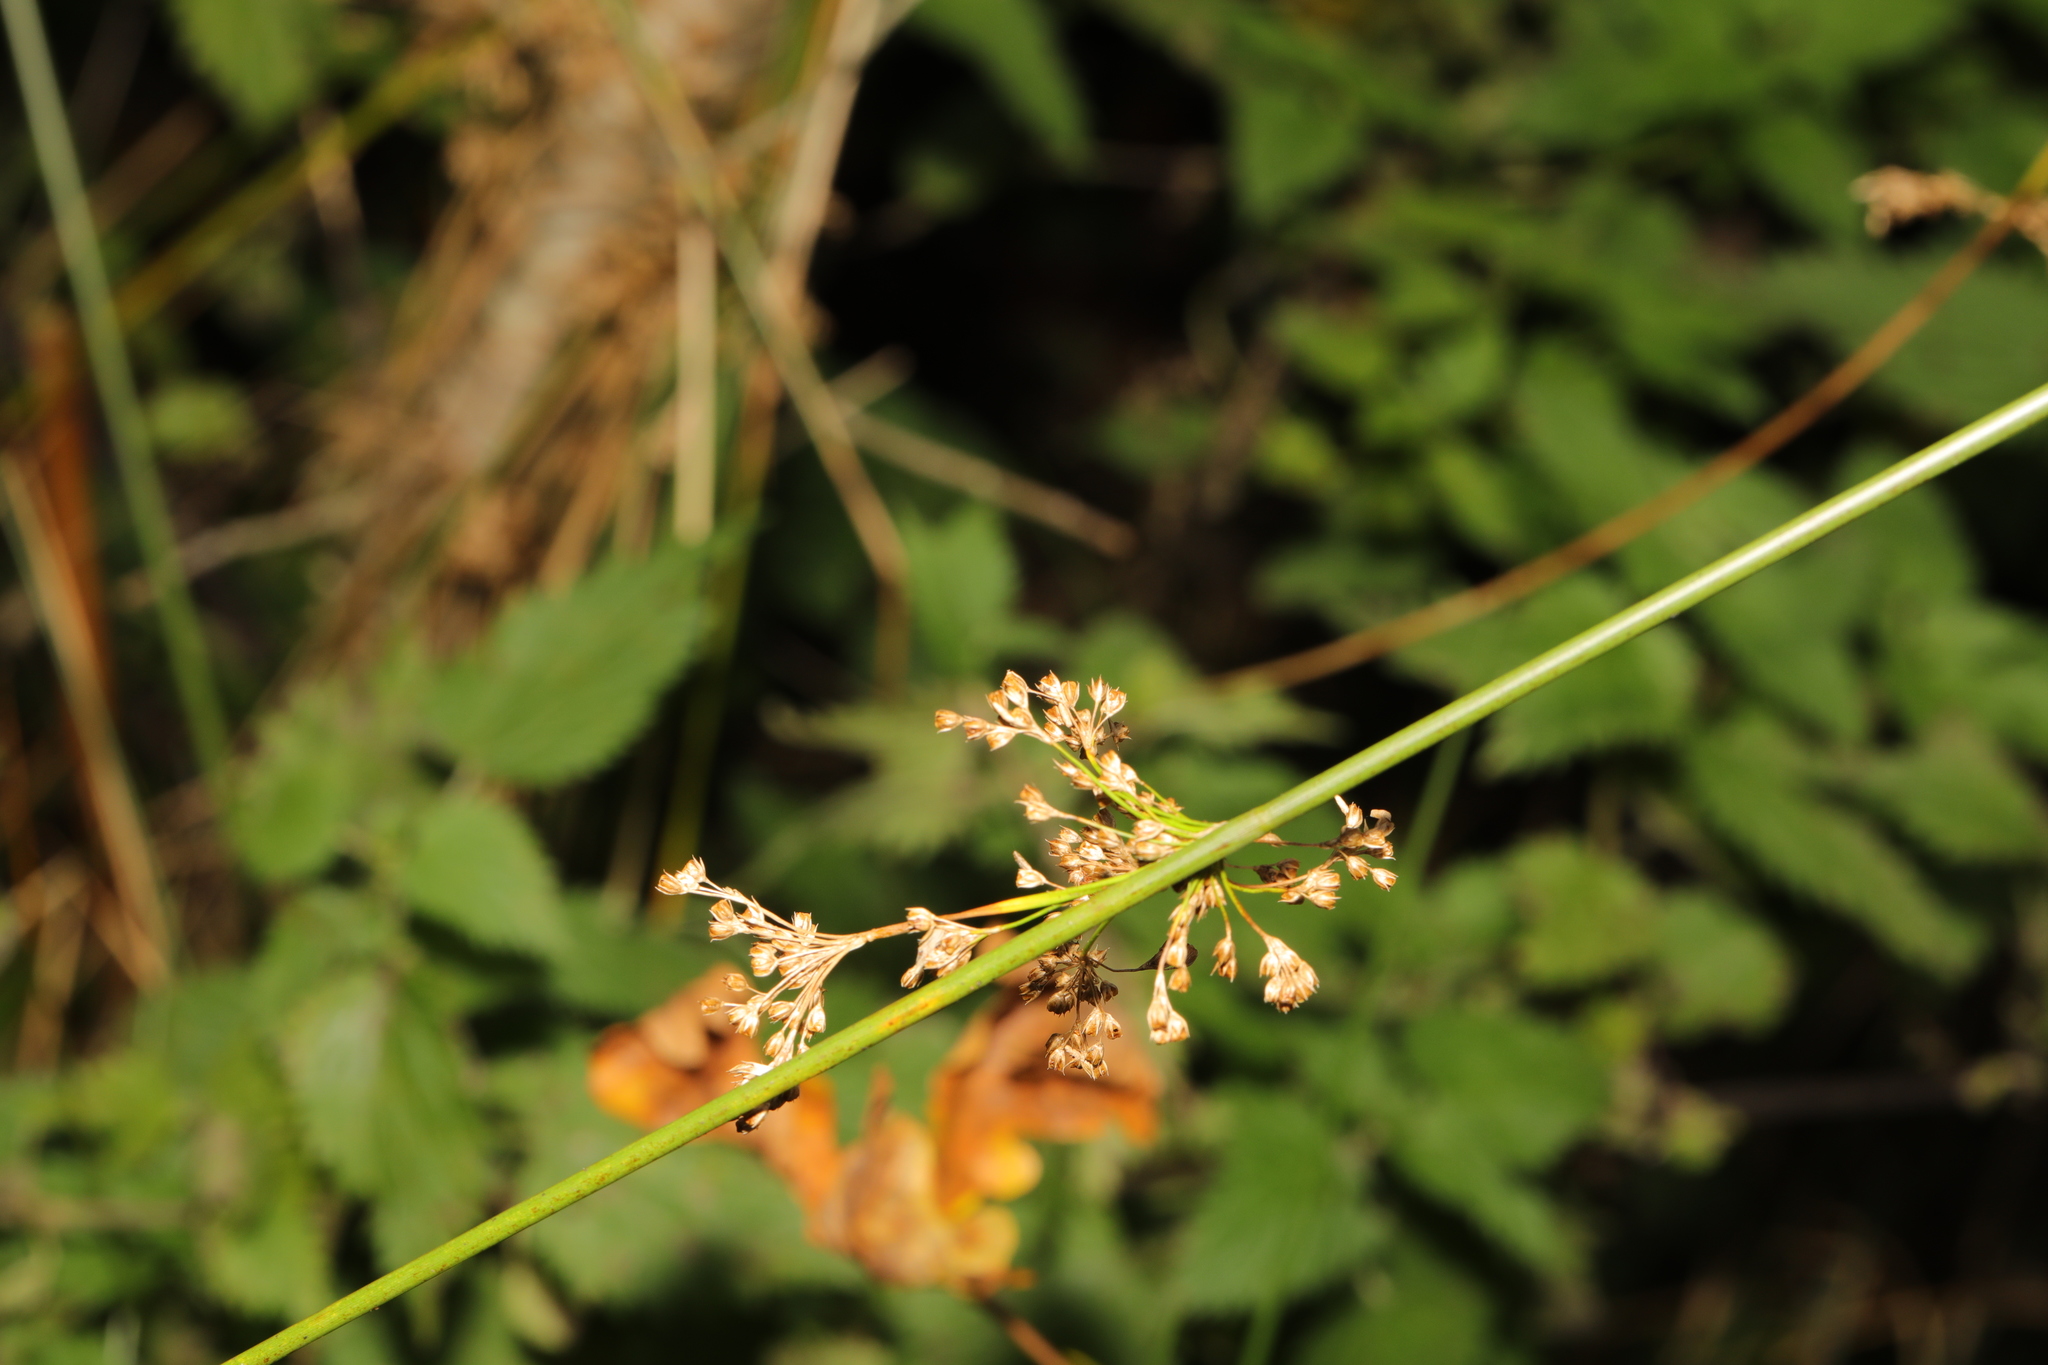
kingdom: Plantae
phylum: Tracheophyta
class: Liliopsida
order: Poales
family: Juncaceae
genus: Juncus
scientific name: Juncus effusus
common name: Soft rush
